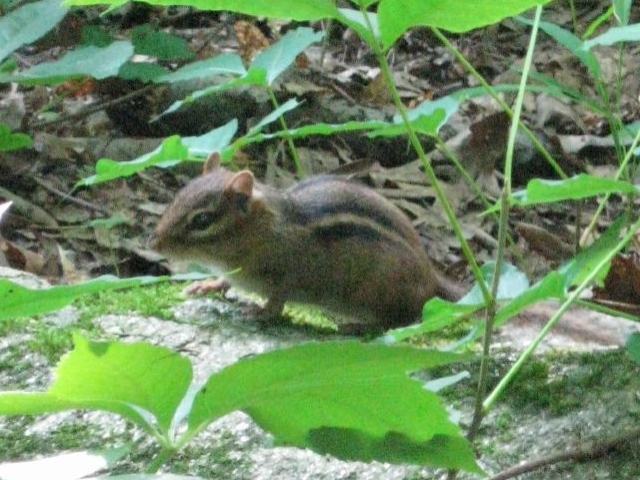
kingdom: Animalia
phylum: Chordata
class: Mammalia
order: Rodentia
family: Sciuridae
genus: Tamias
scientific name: Tamias striatus
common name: Eastern chipmunk
